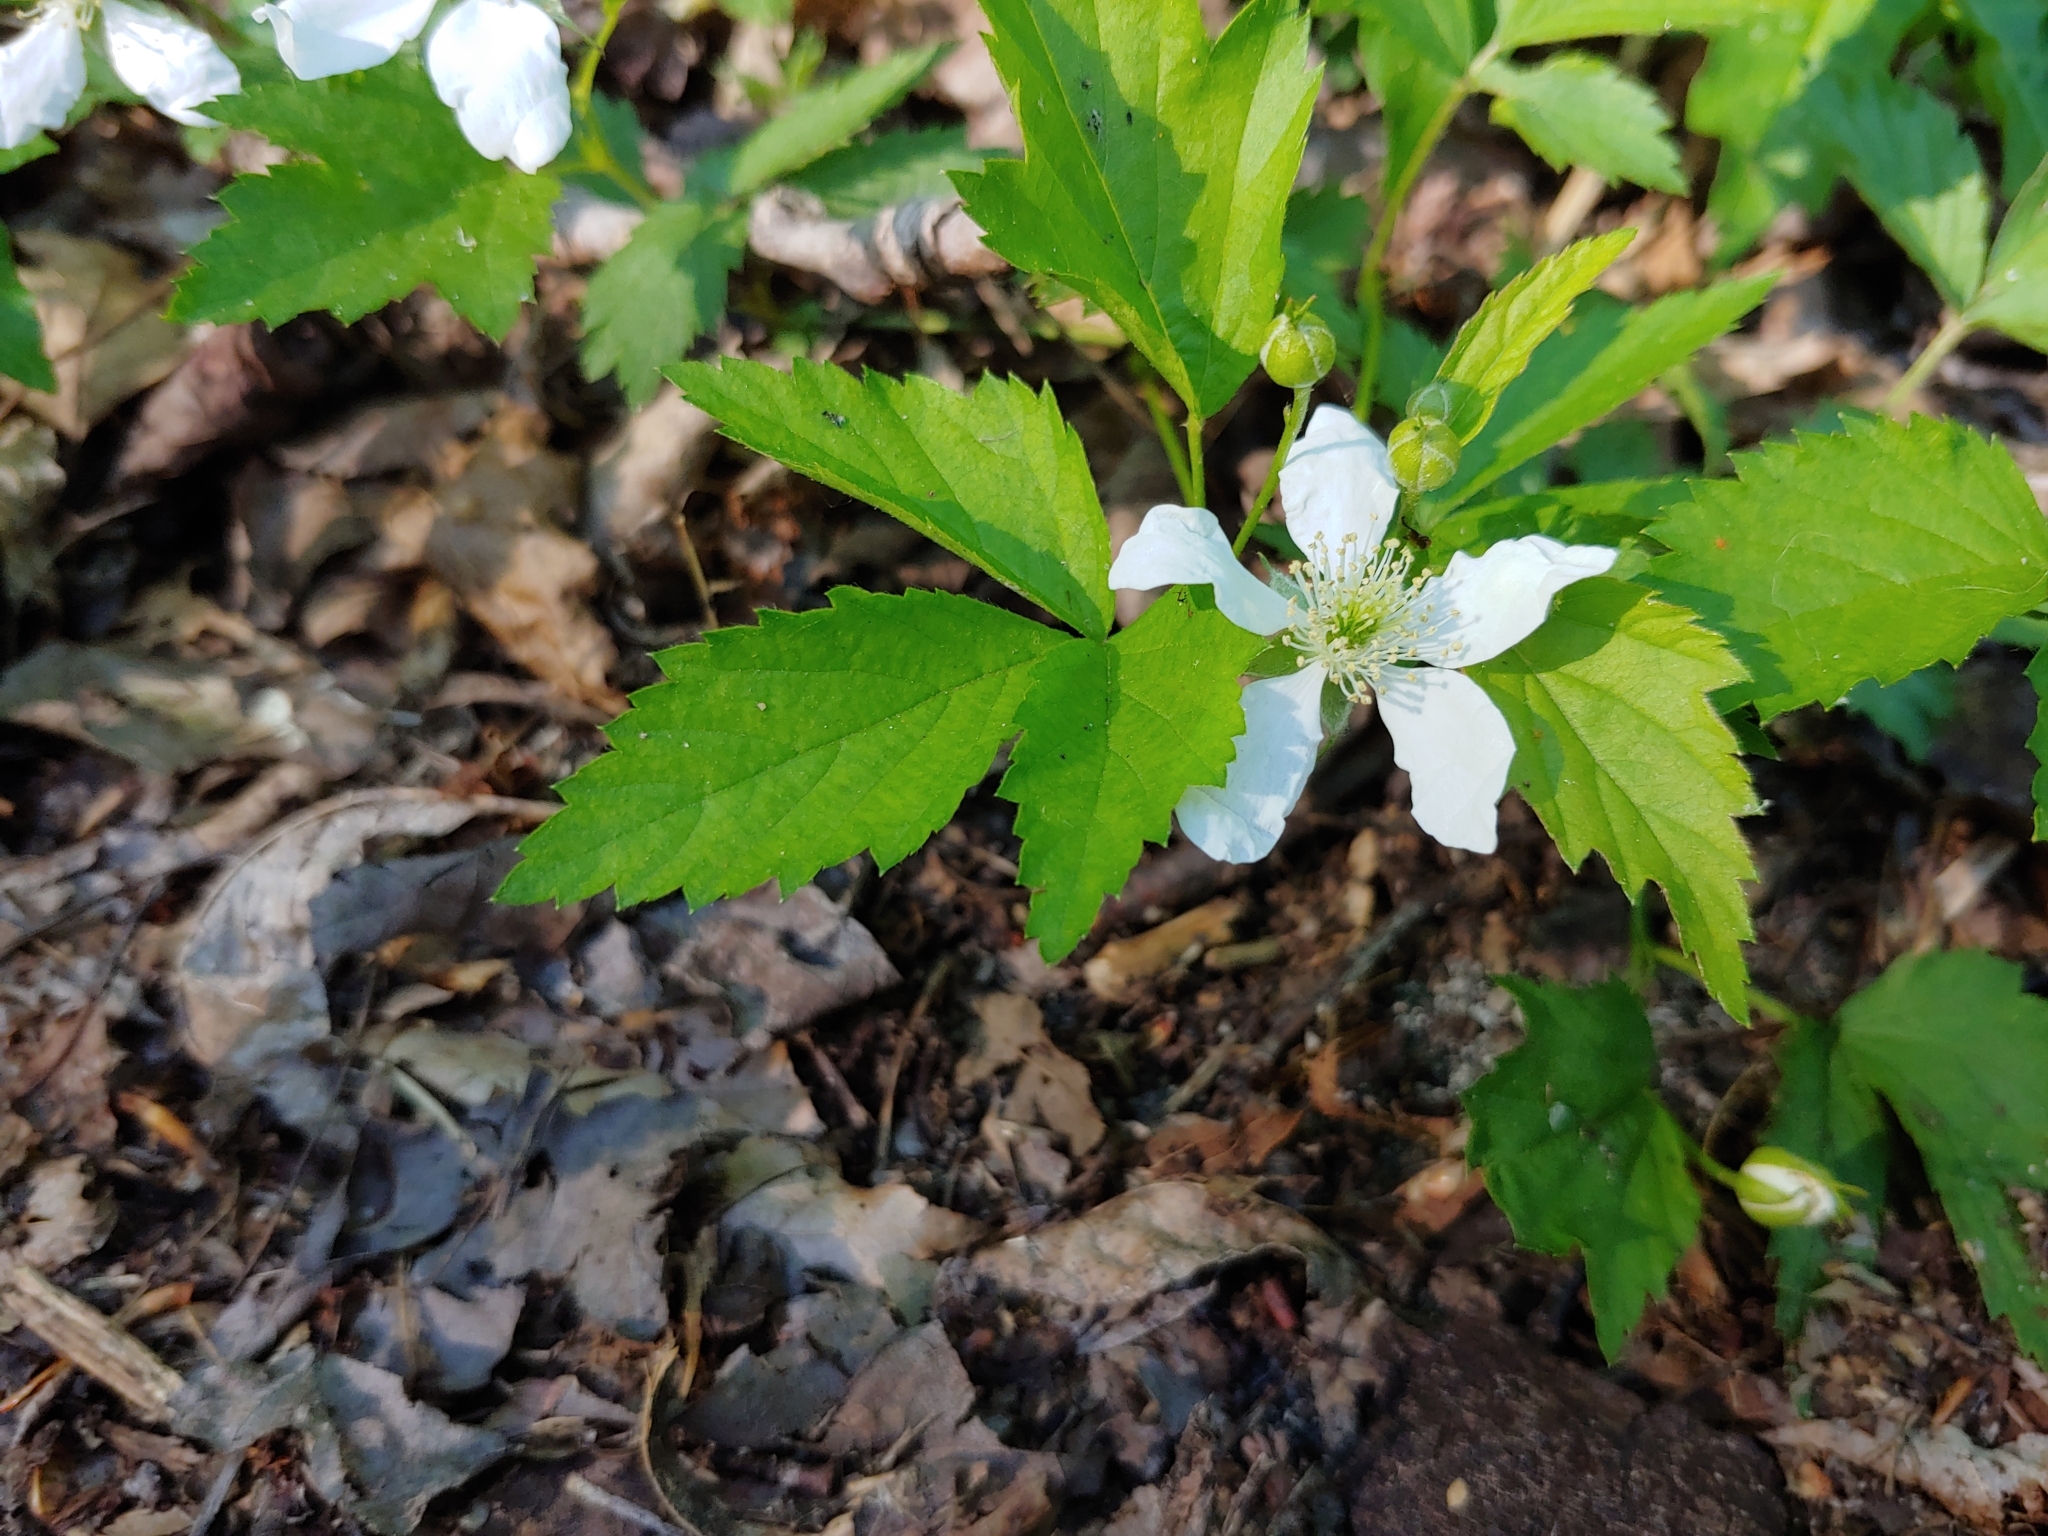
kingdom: Plantae
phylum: Tracheophyta
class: Magnoliopsida
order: Rosales
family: Rosaceae
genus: Rubus
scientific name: Rubus flagellaris
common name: American dewberry
